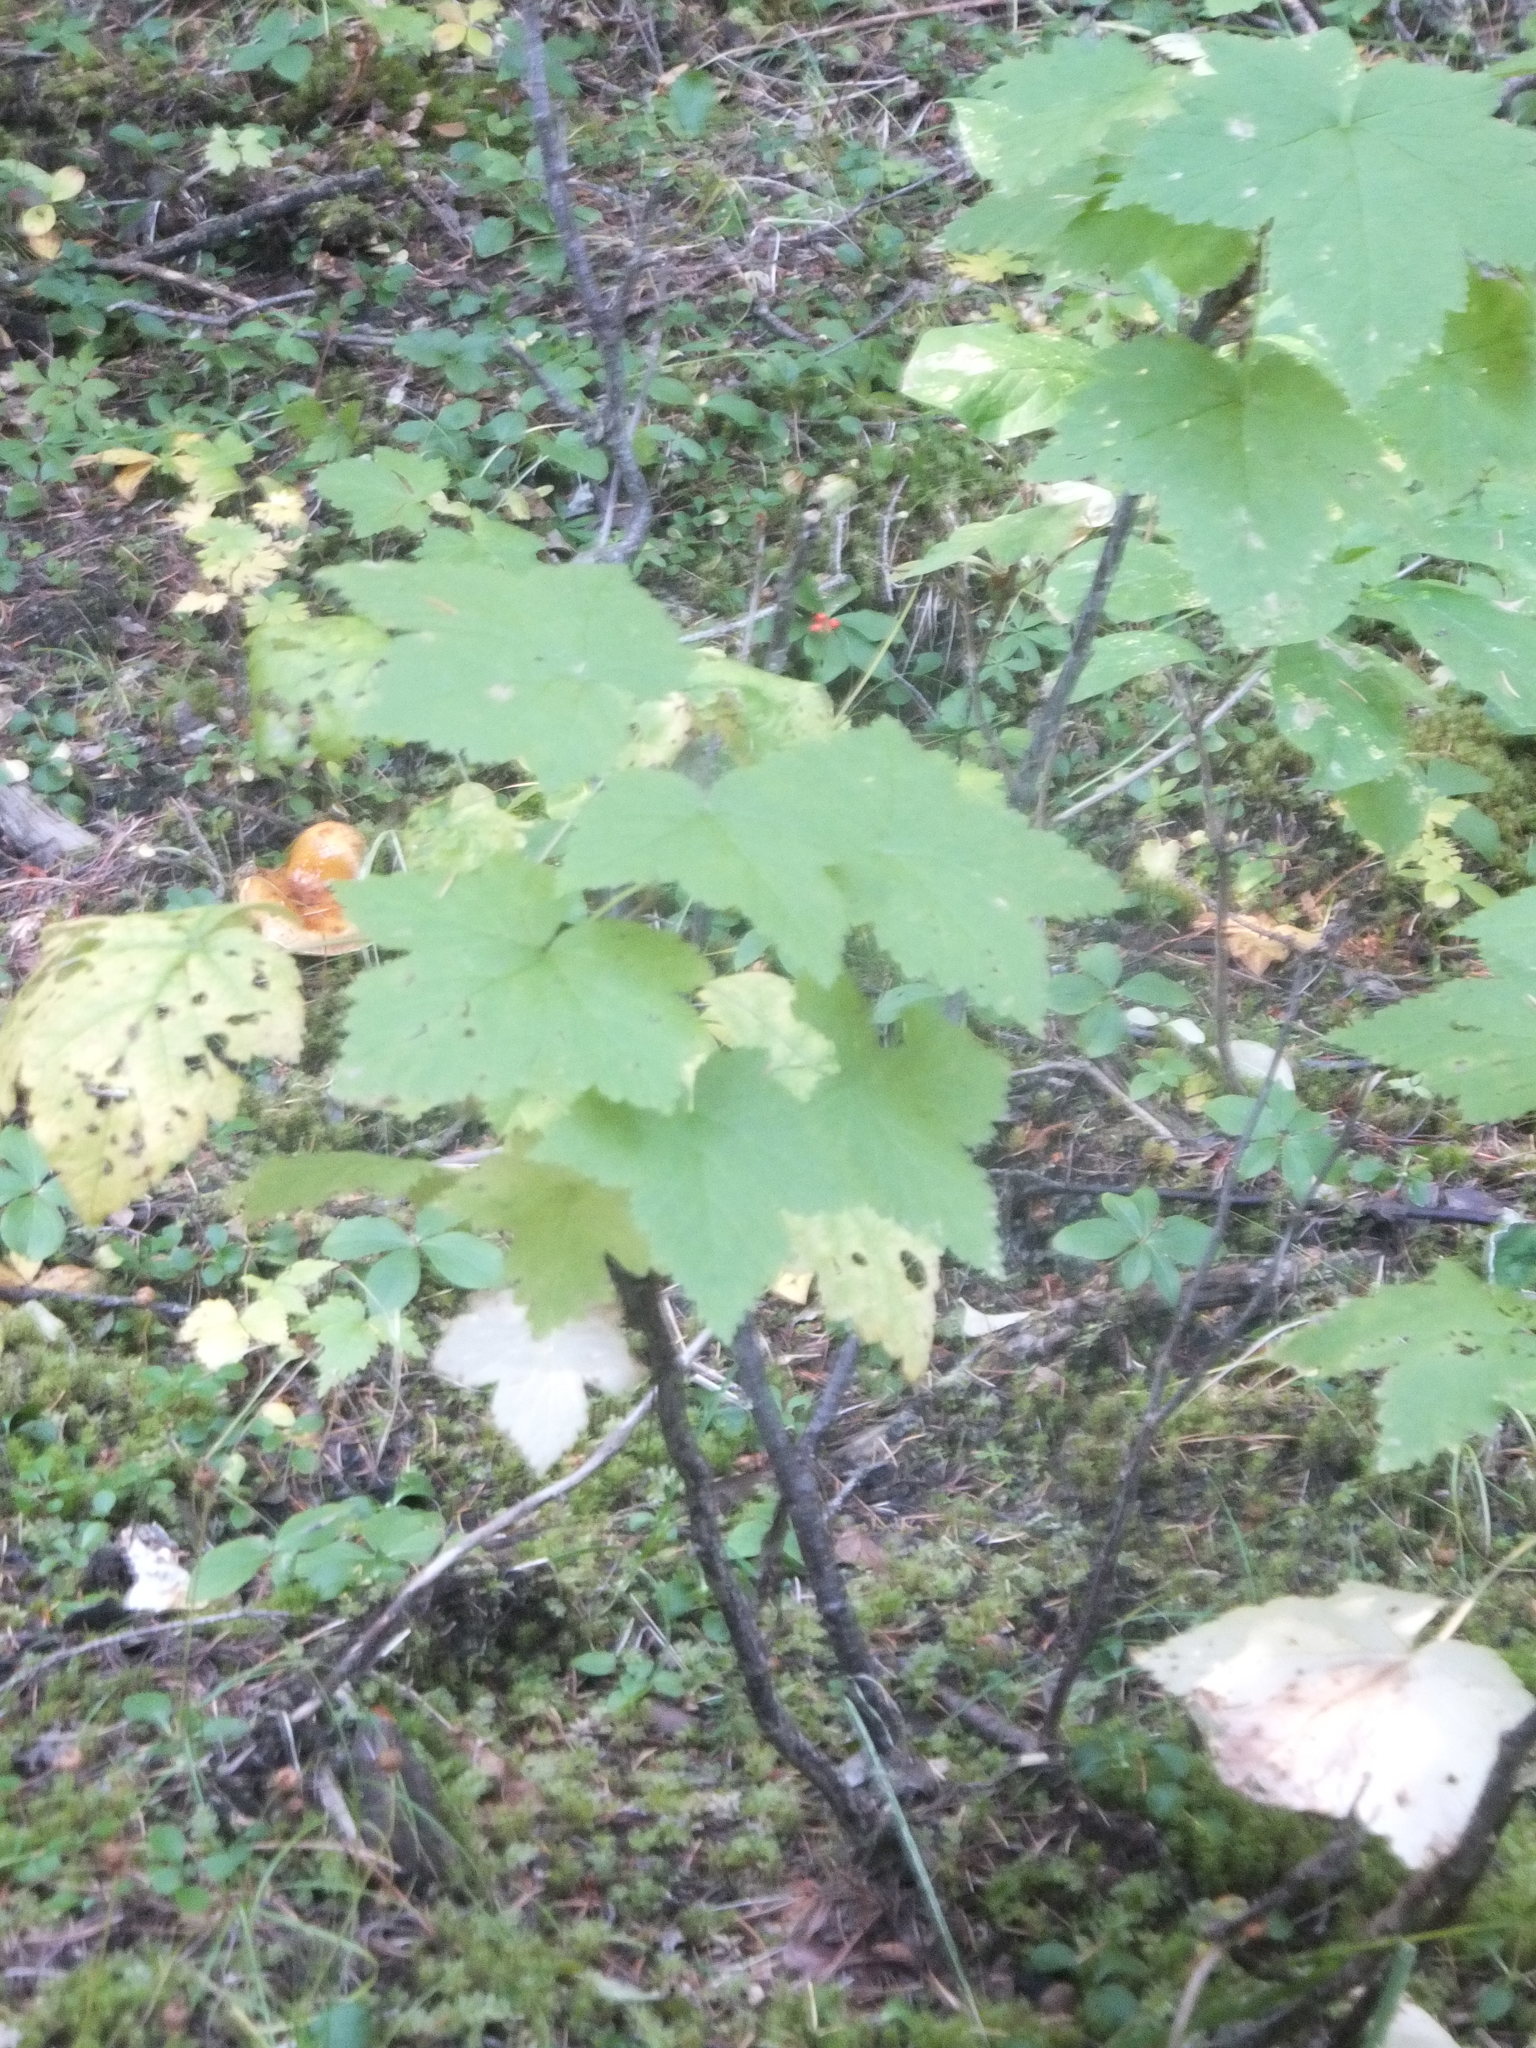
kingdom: Plantae
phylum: Tracheophyta
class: Magnoliopsida
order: Rosales
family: Rosaceae
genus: Rubus
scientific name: Rubus parviflorus
